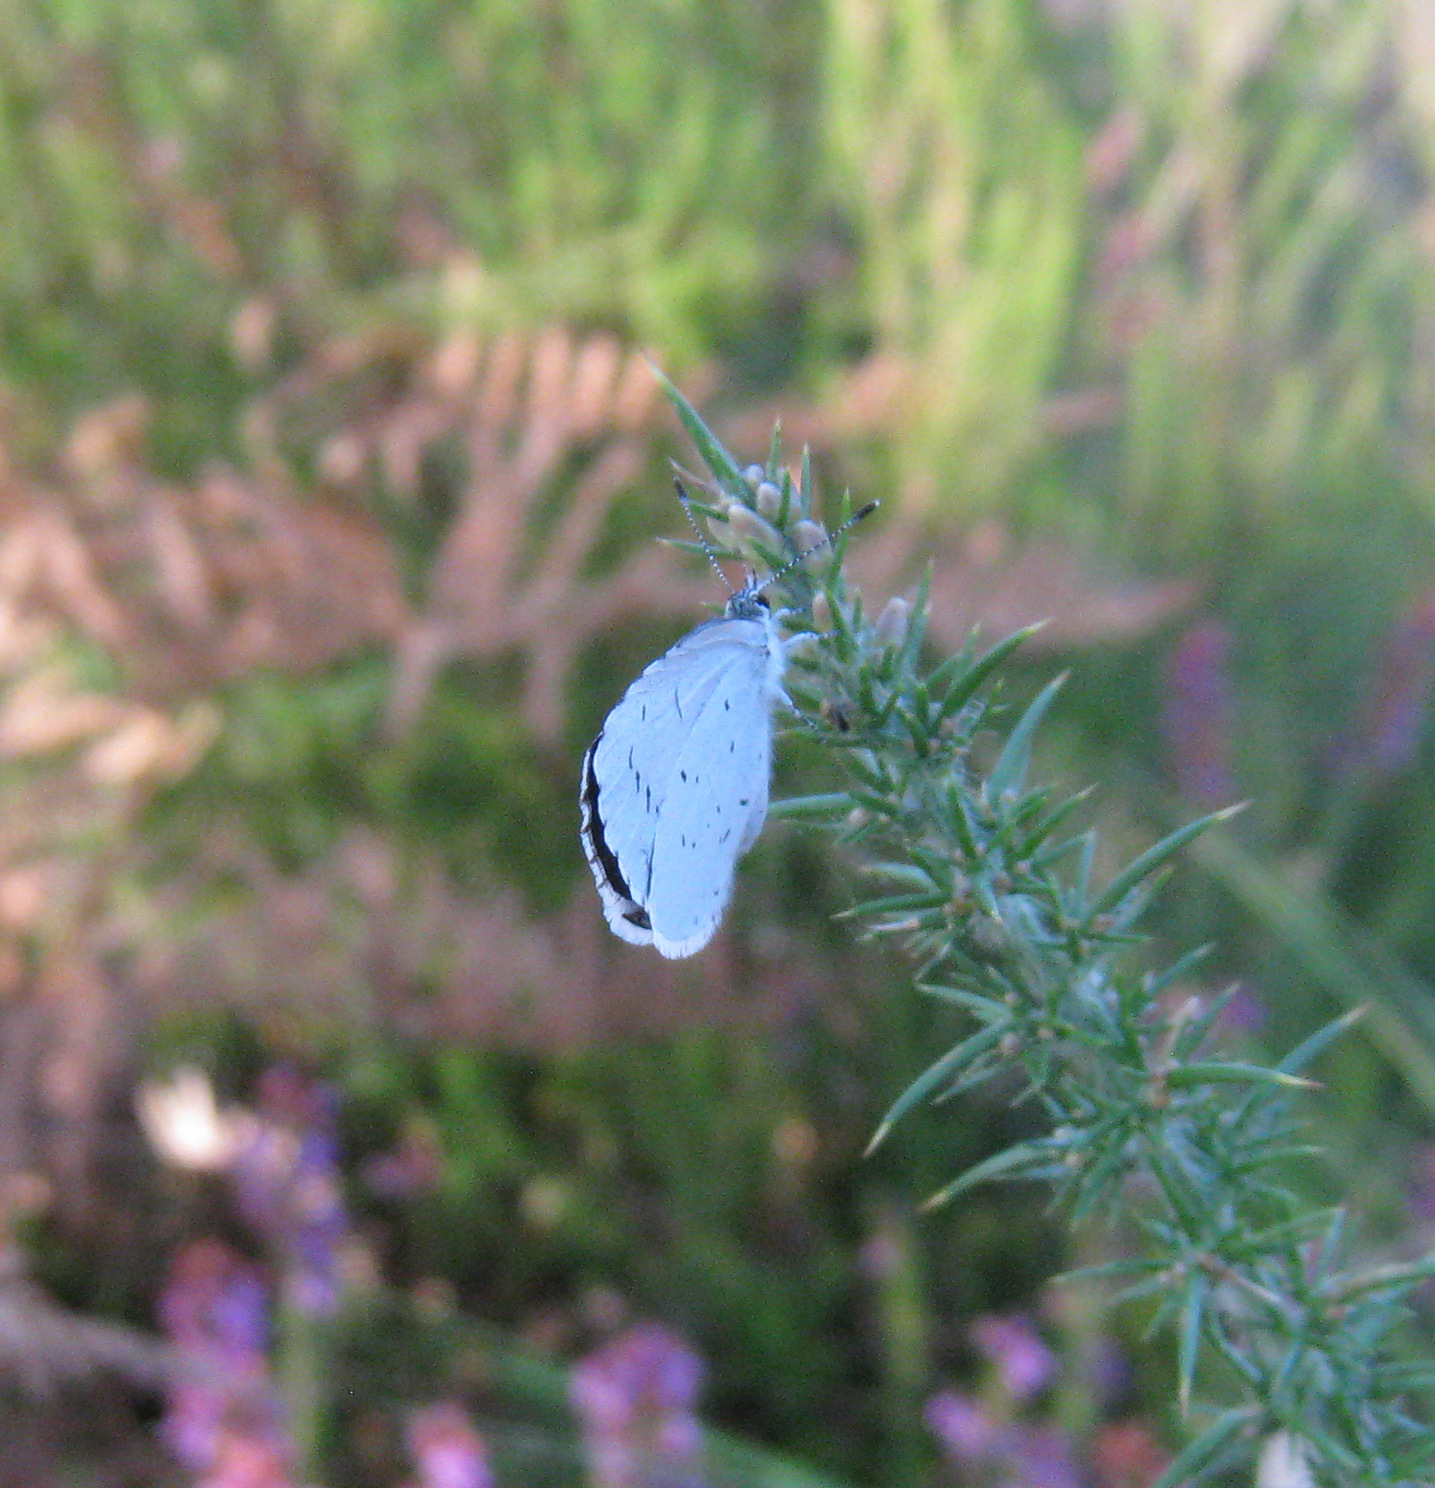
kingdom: Animalia
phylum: Arthropoda
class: Insecta
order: Lepidoptera
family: Lycaenidae
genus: Celastrina
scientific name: Celastrina argiolus
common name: Holly blue
